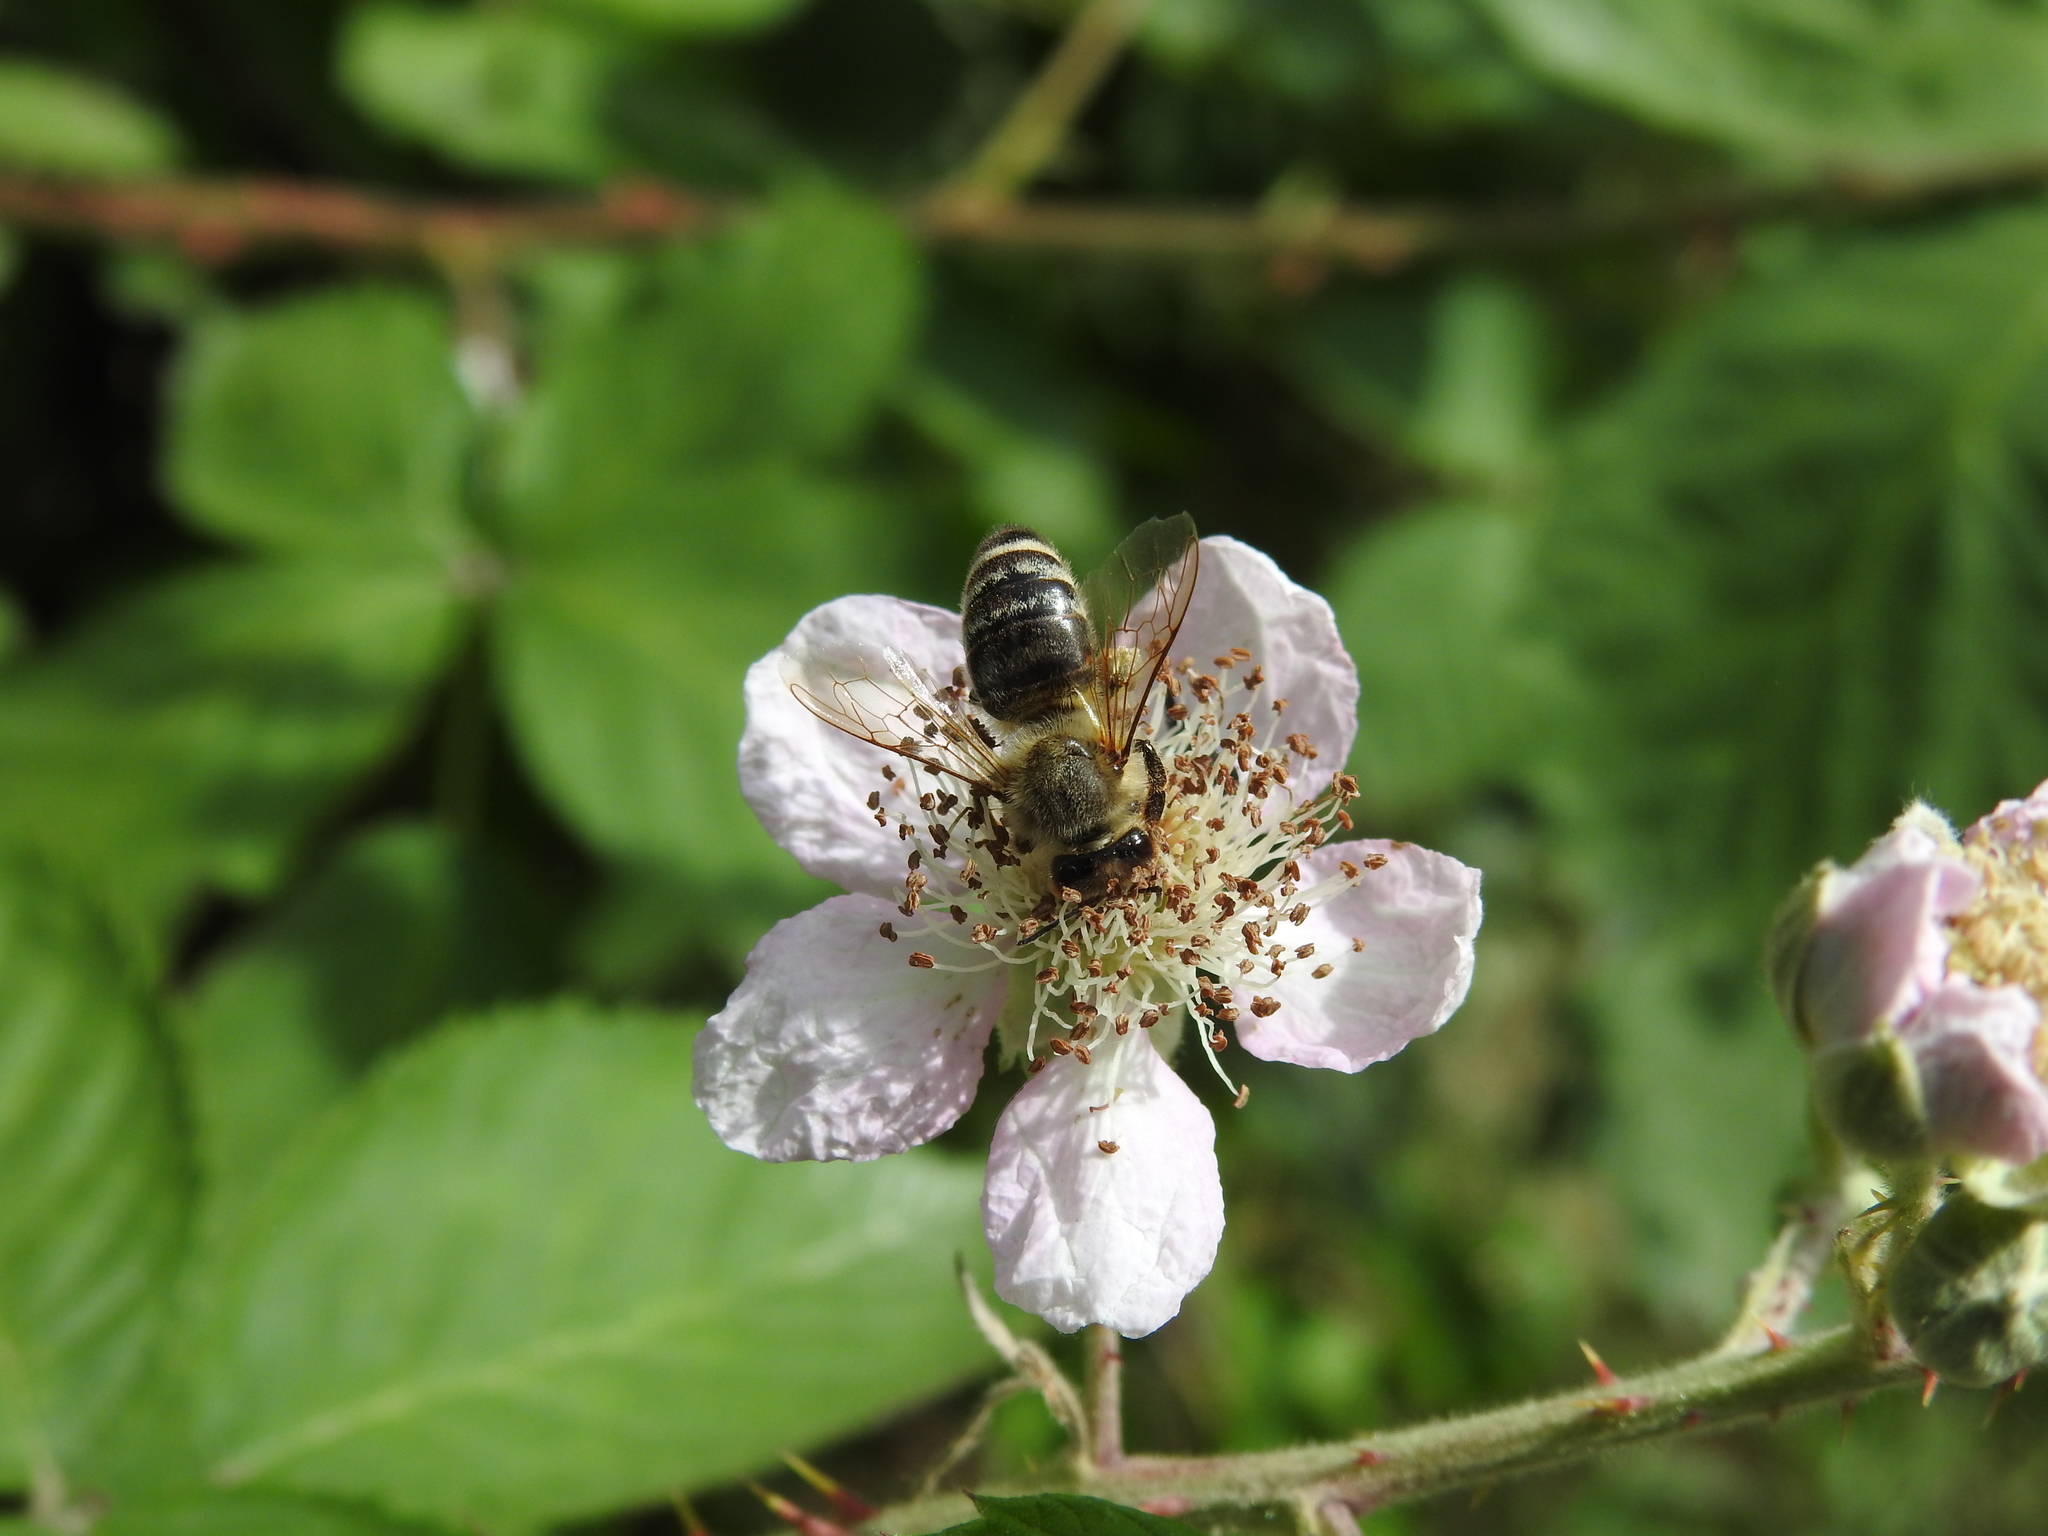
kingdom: Animalia
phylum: Arthropoda
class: Insecta
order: Hymenoptera
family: Apidae
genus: Apis
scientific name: Apis mellifera
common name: Honey bee
